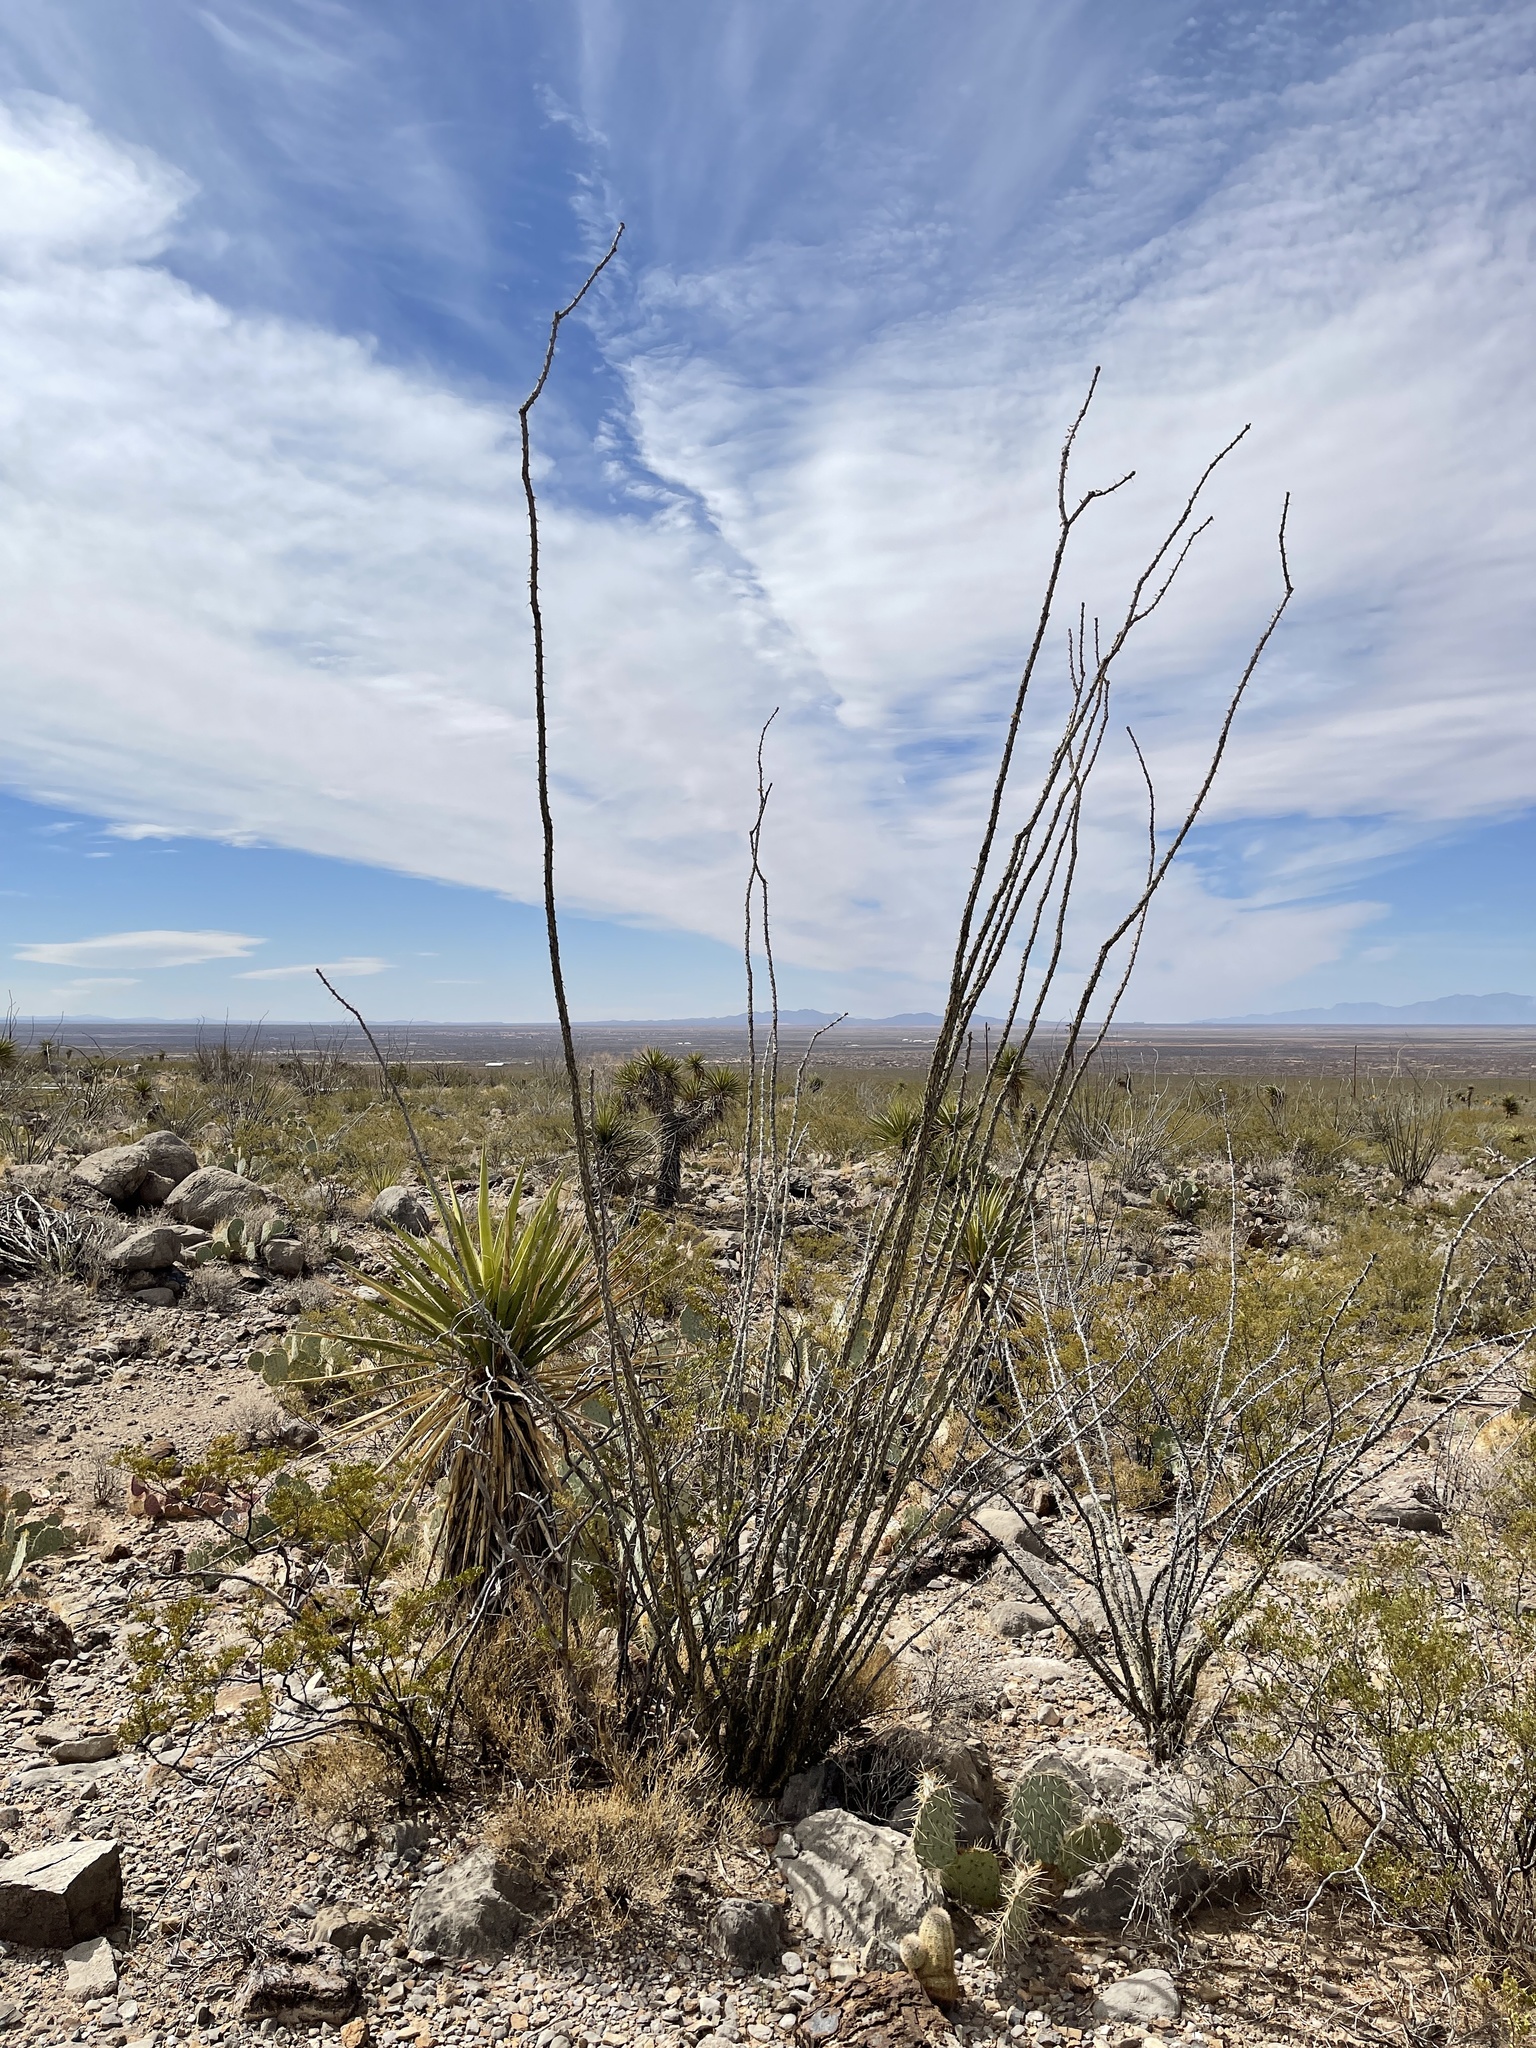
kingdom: Plantae
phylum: Tracheophyta
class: Magnoliopsida
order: Ericales
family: Fouquieriaceae
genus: Fouquieria
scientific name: Fouquieria splendens
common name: Vine-cactus
